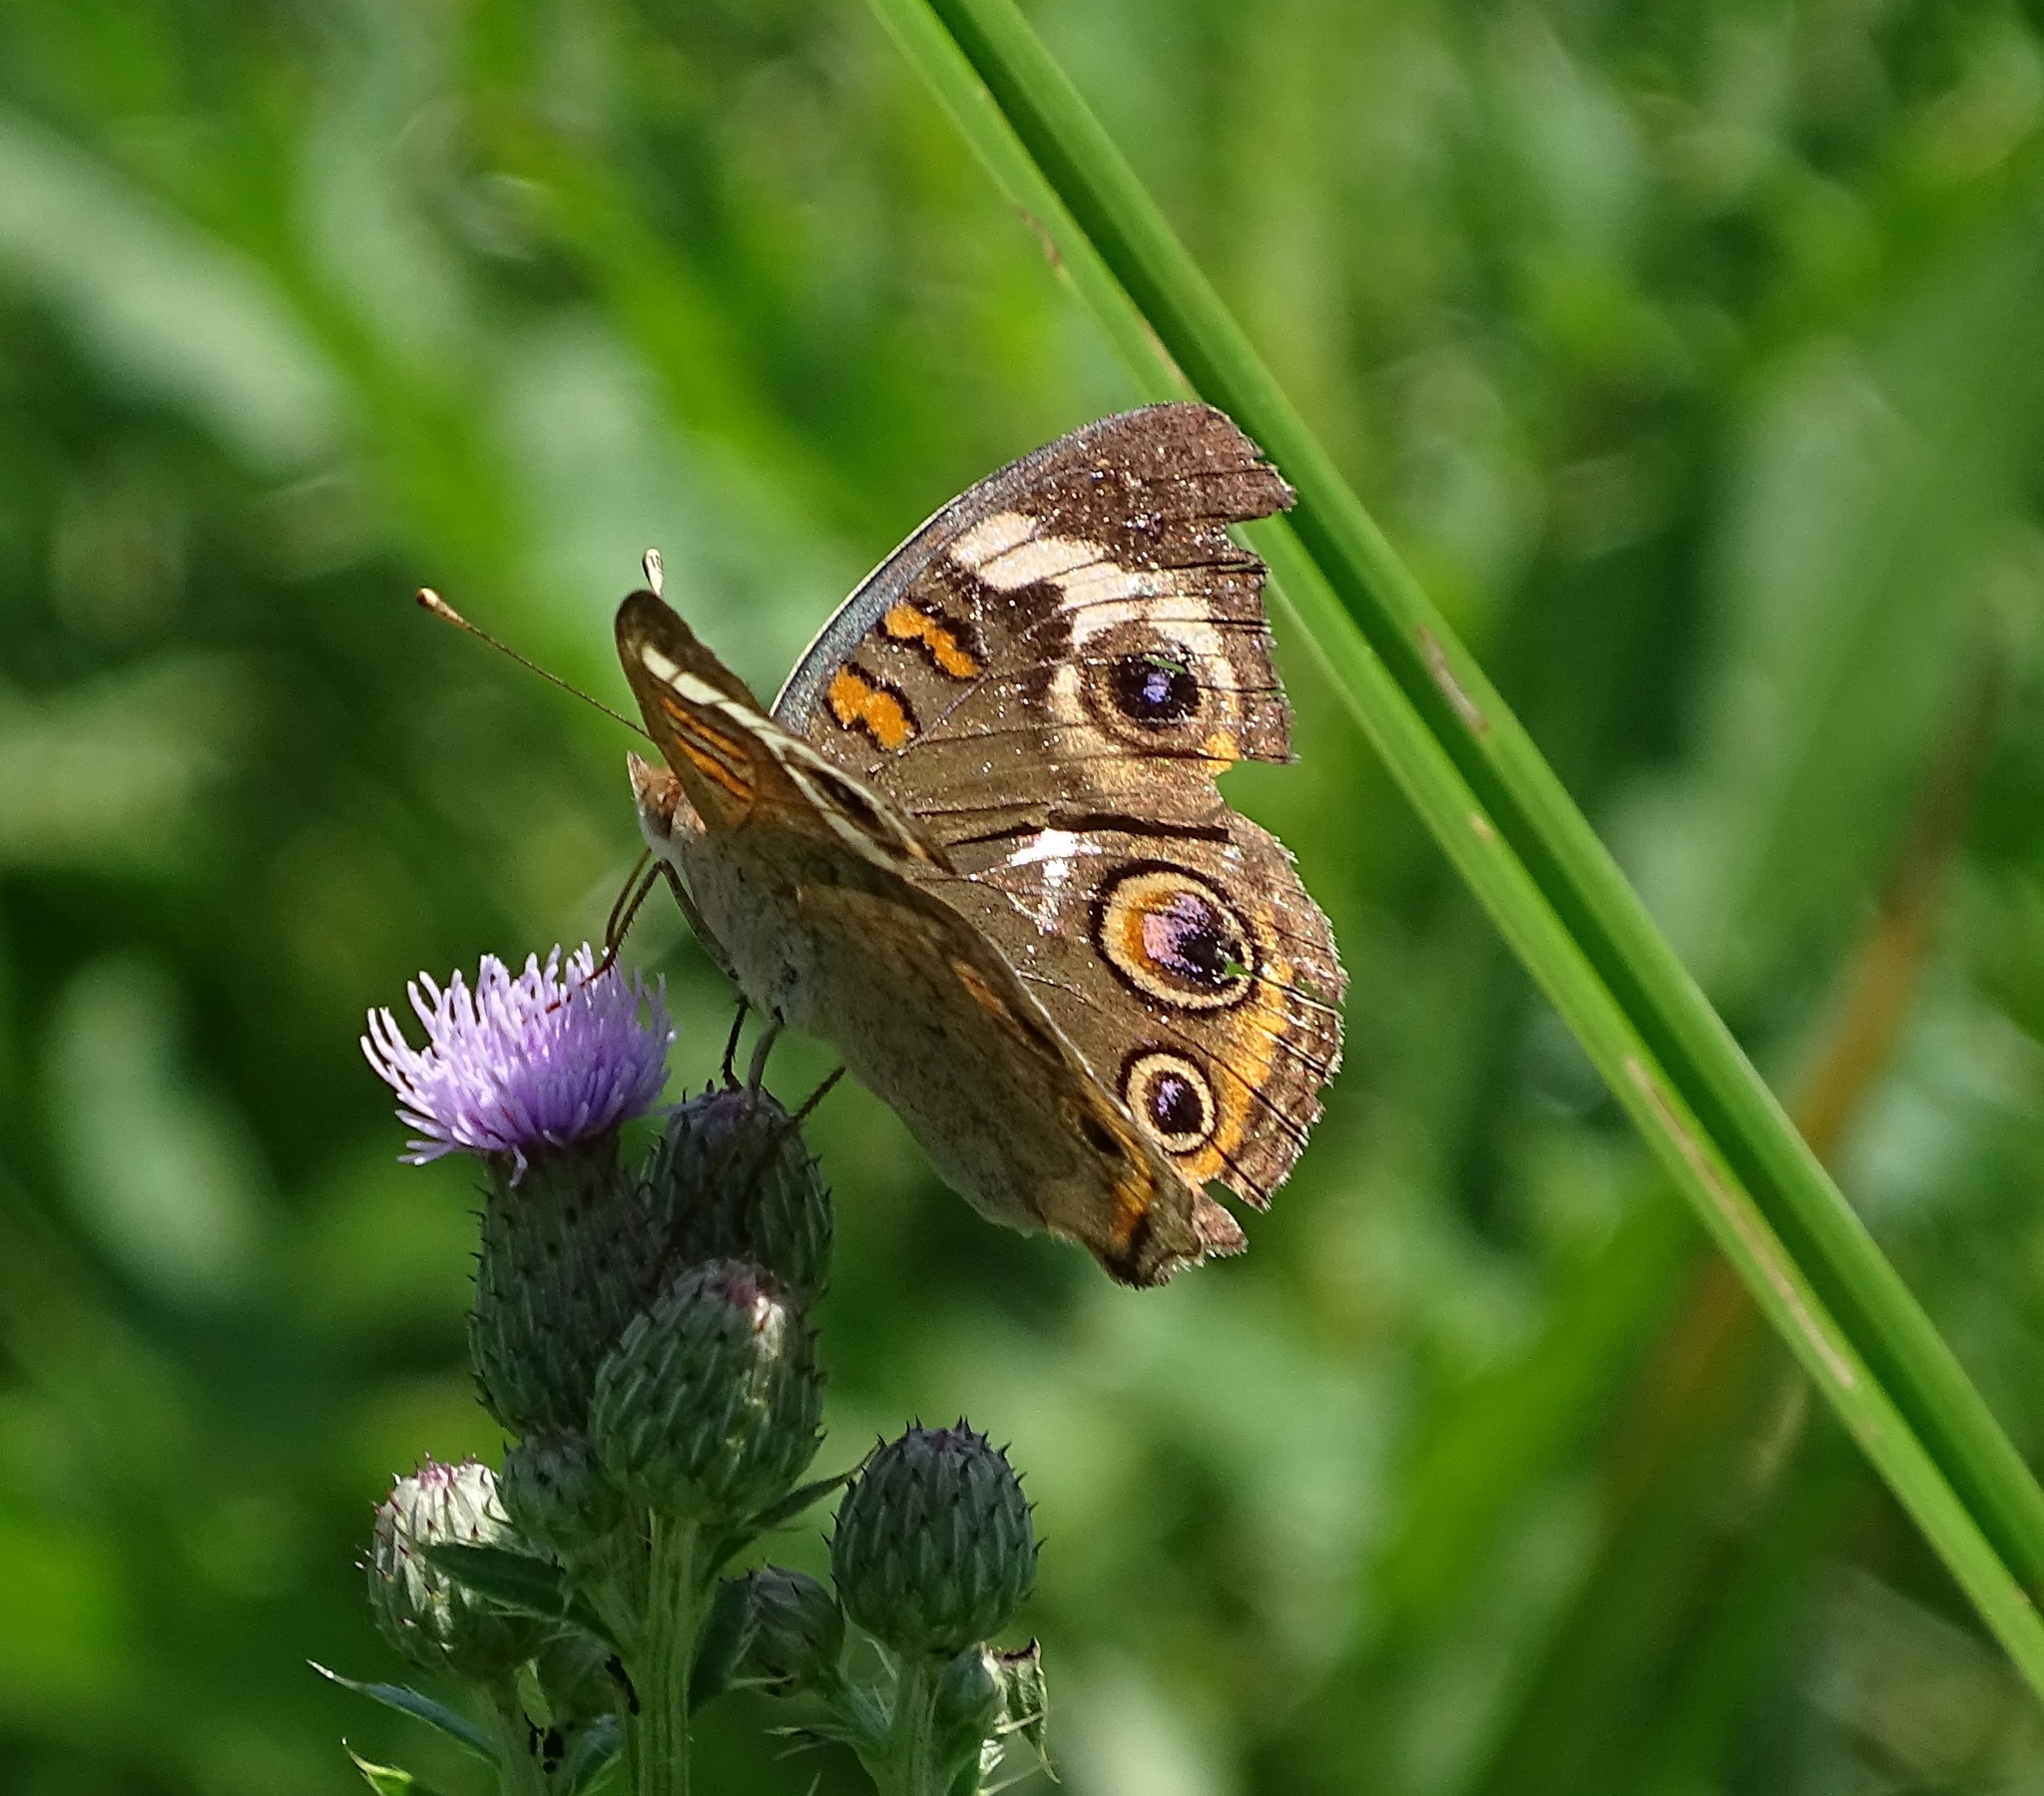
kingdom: Animalia
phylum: Arthropoda
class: Insecta
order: Lepidoptera
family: Nymphalidae
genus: Junonia
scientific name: Junonia coenia
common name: Common buckeye
